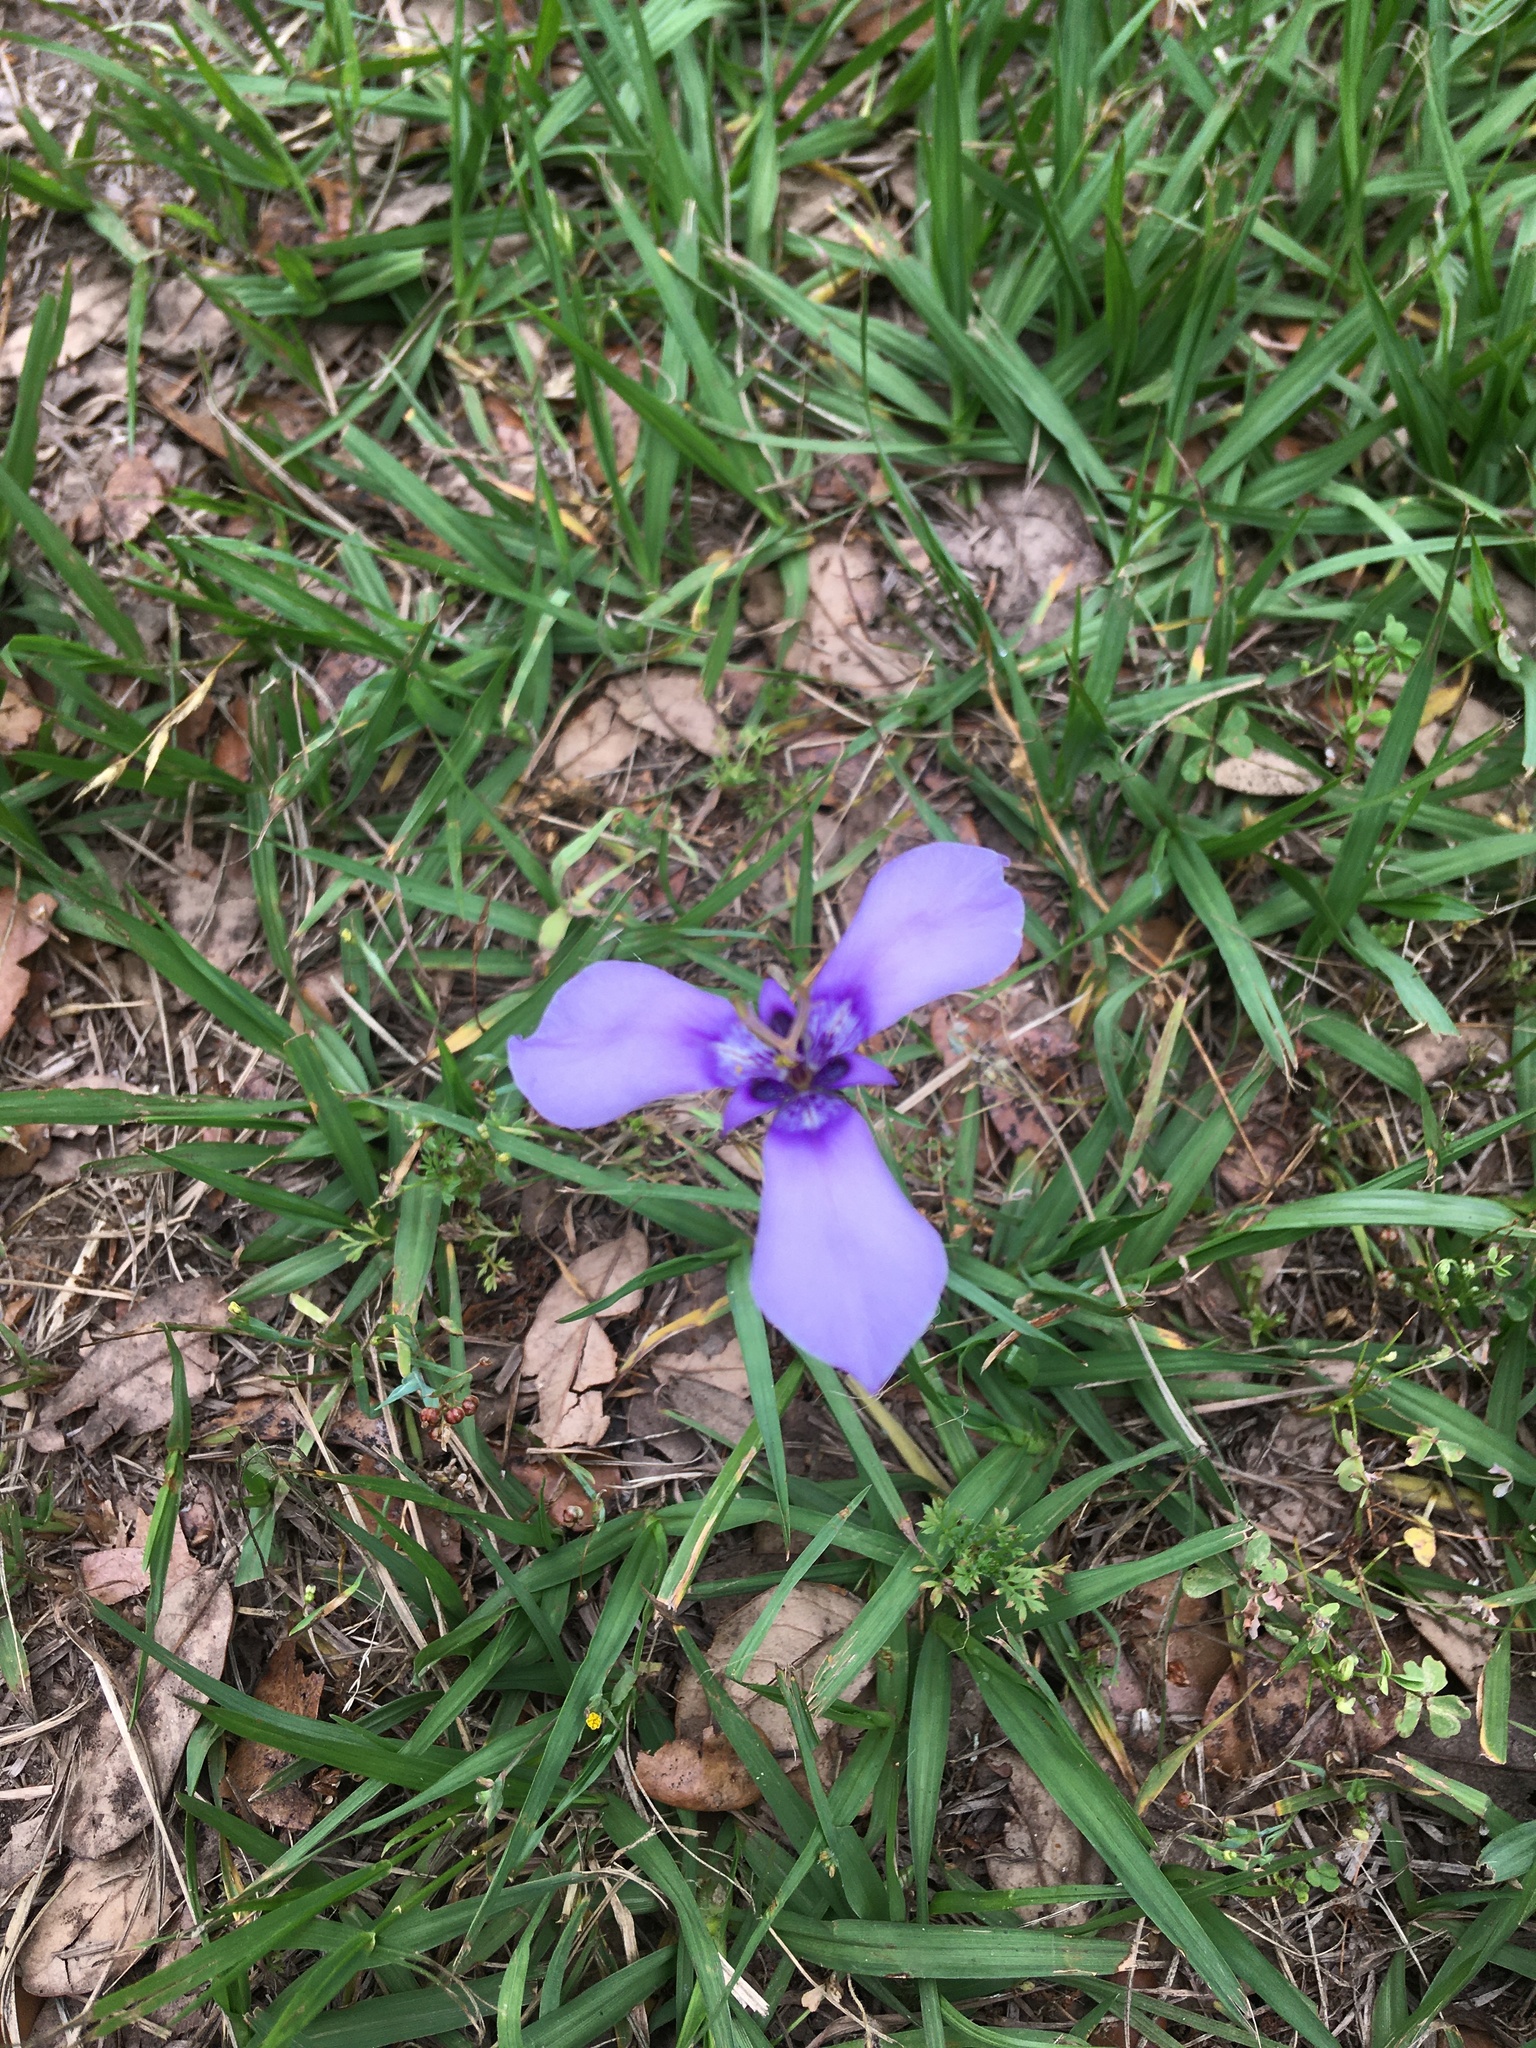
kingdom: Plantae
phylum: Tracheophyta
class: Liliopsida
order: Asparagales
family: Iridaceae
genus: Herbertia
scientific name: Herbertia lahue
